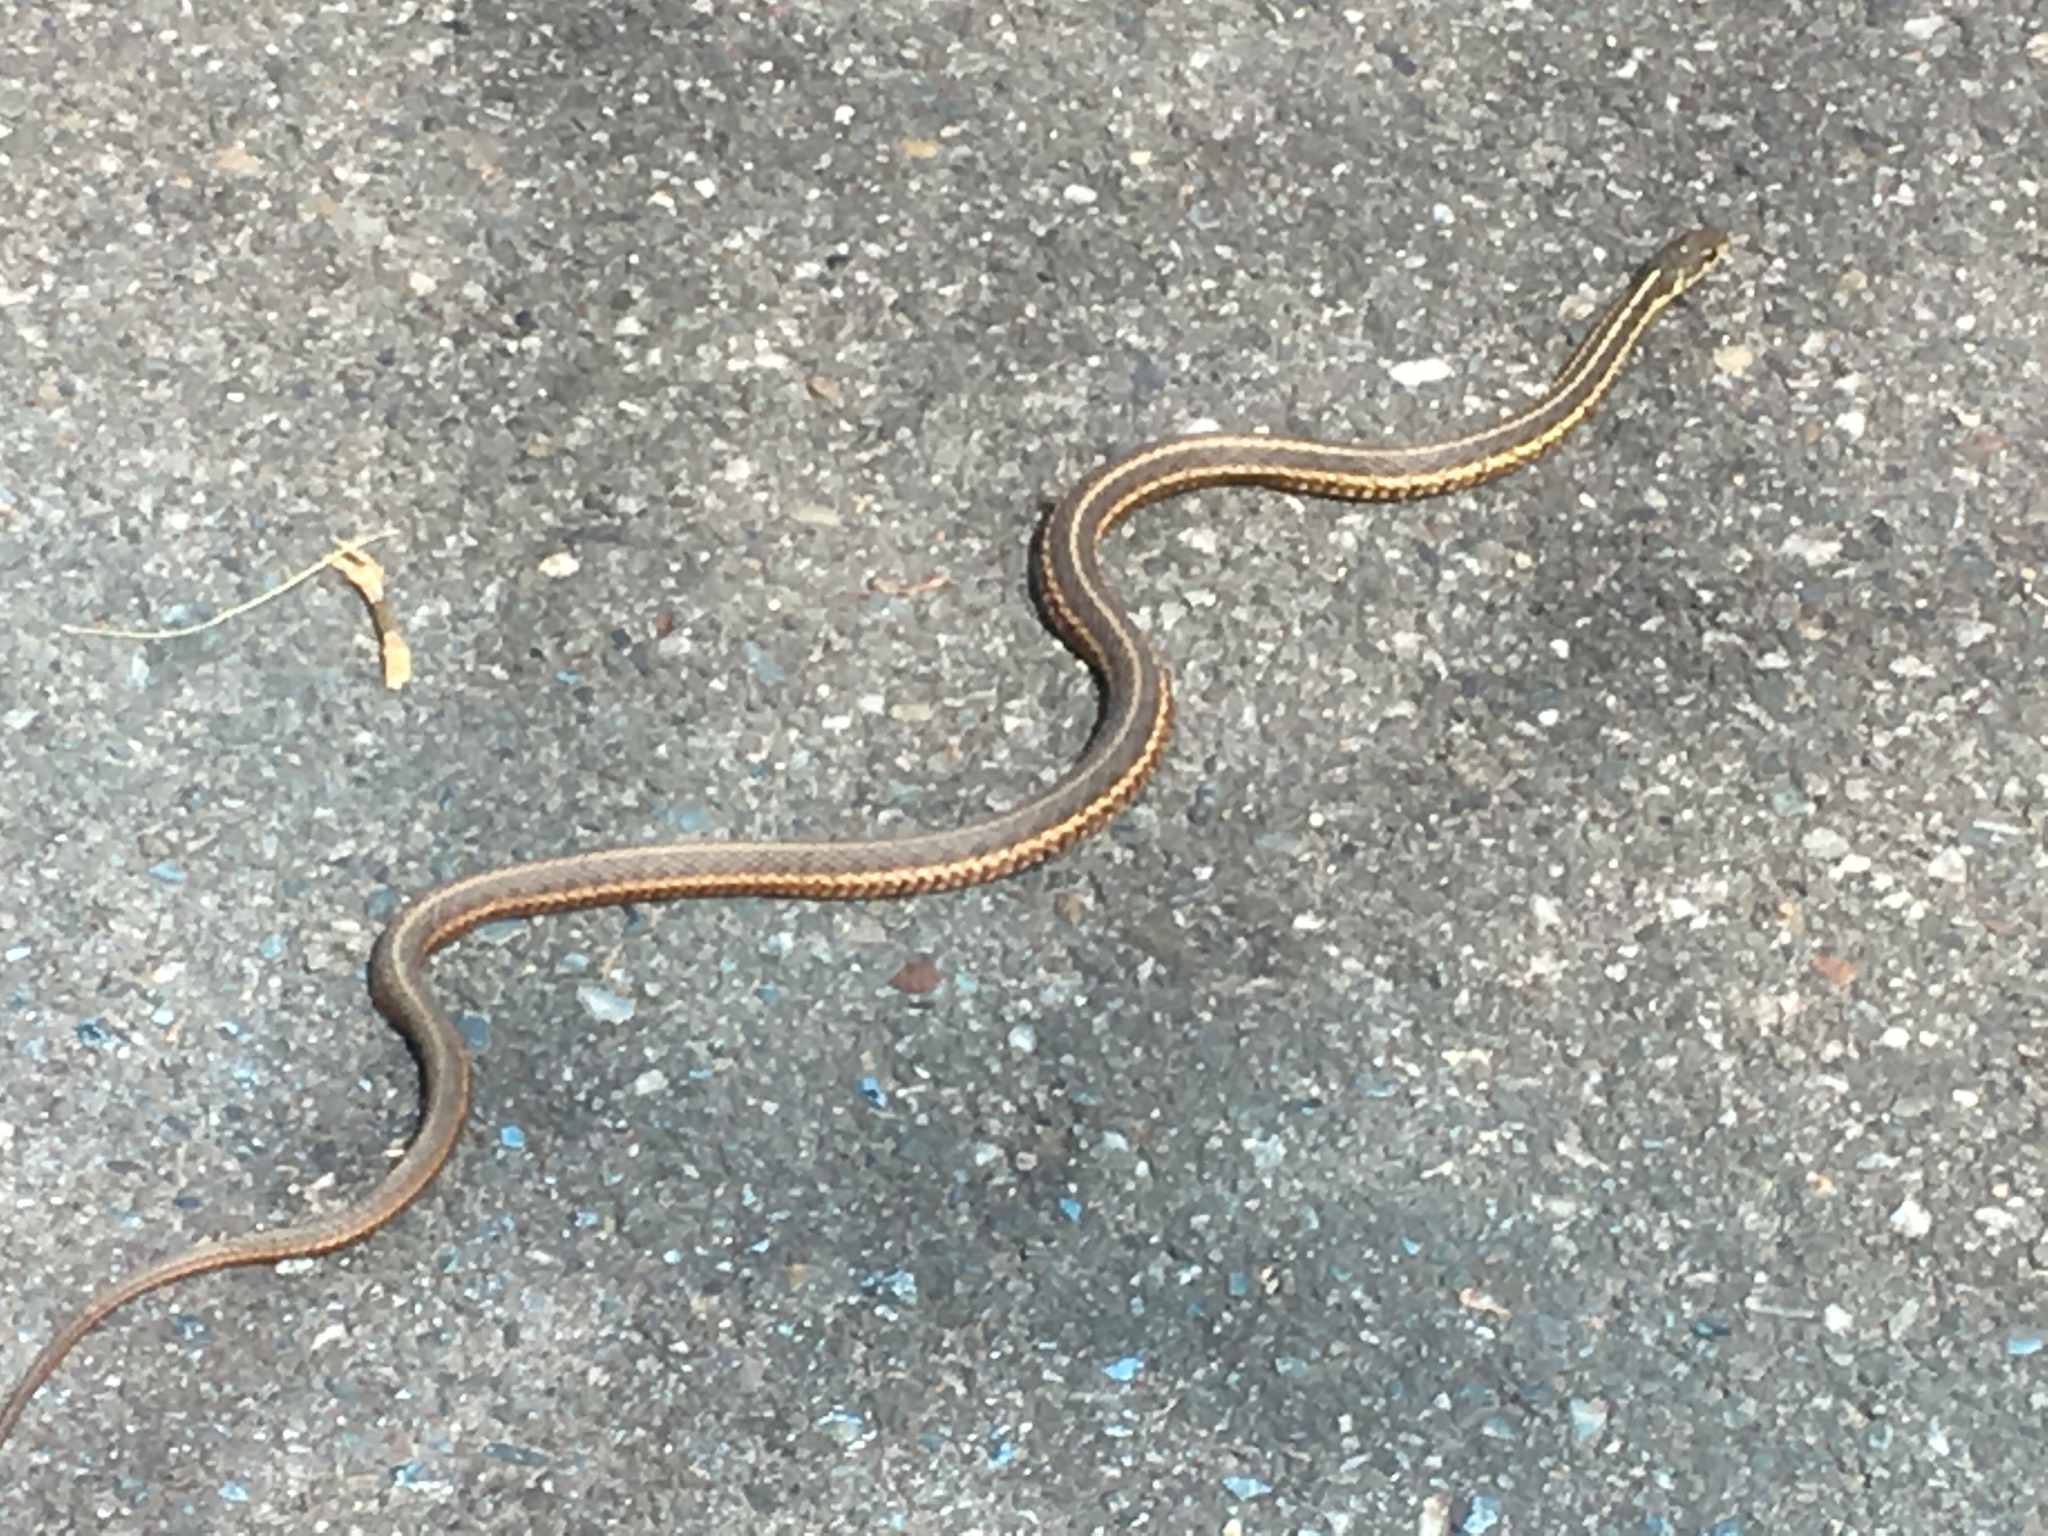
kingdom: Animalia
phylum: Chordata
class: Squamata
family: Colubridae
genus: Thamnophis
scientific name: Thamnophis sirtalis
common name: Common garter snake
